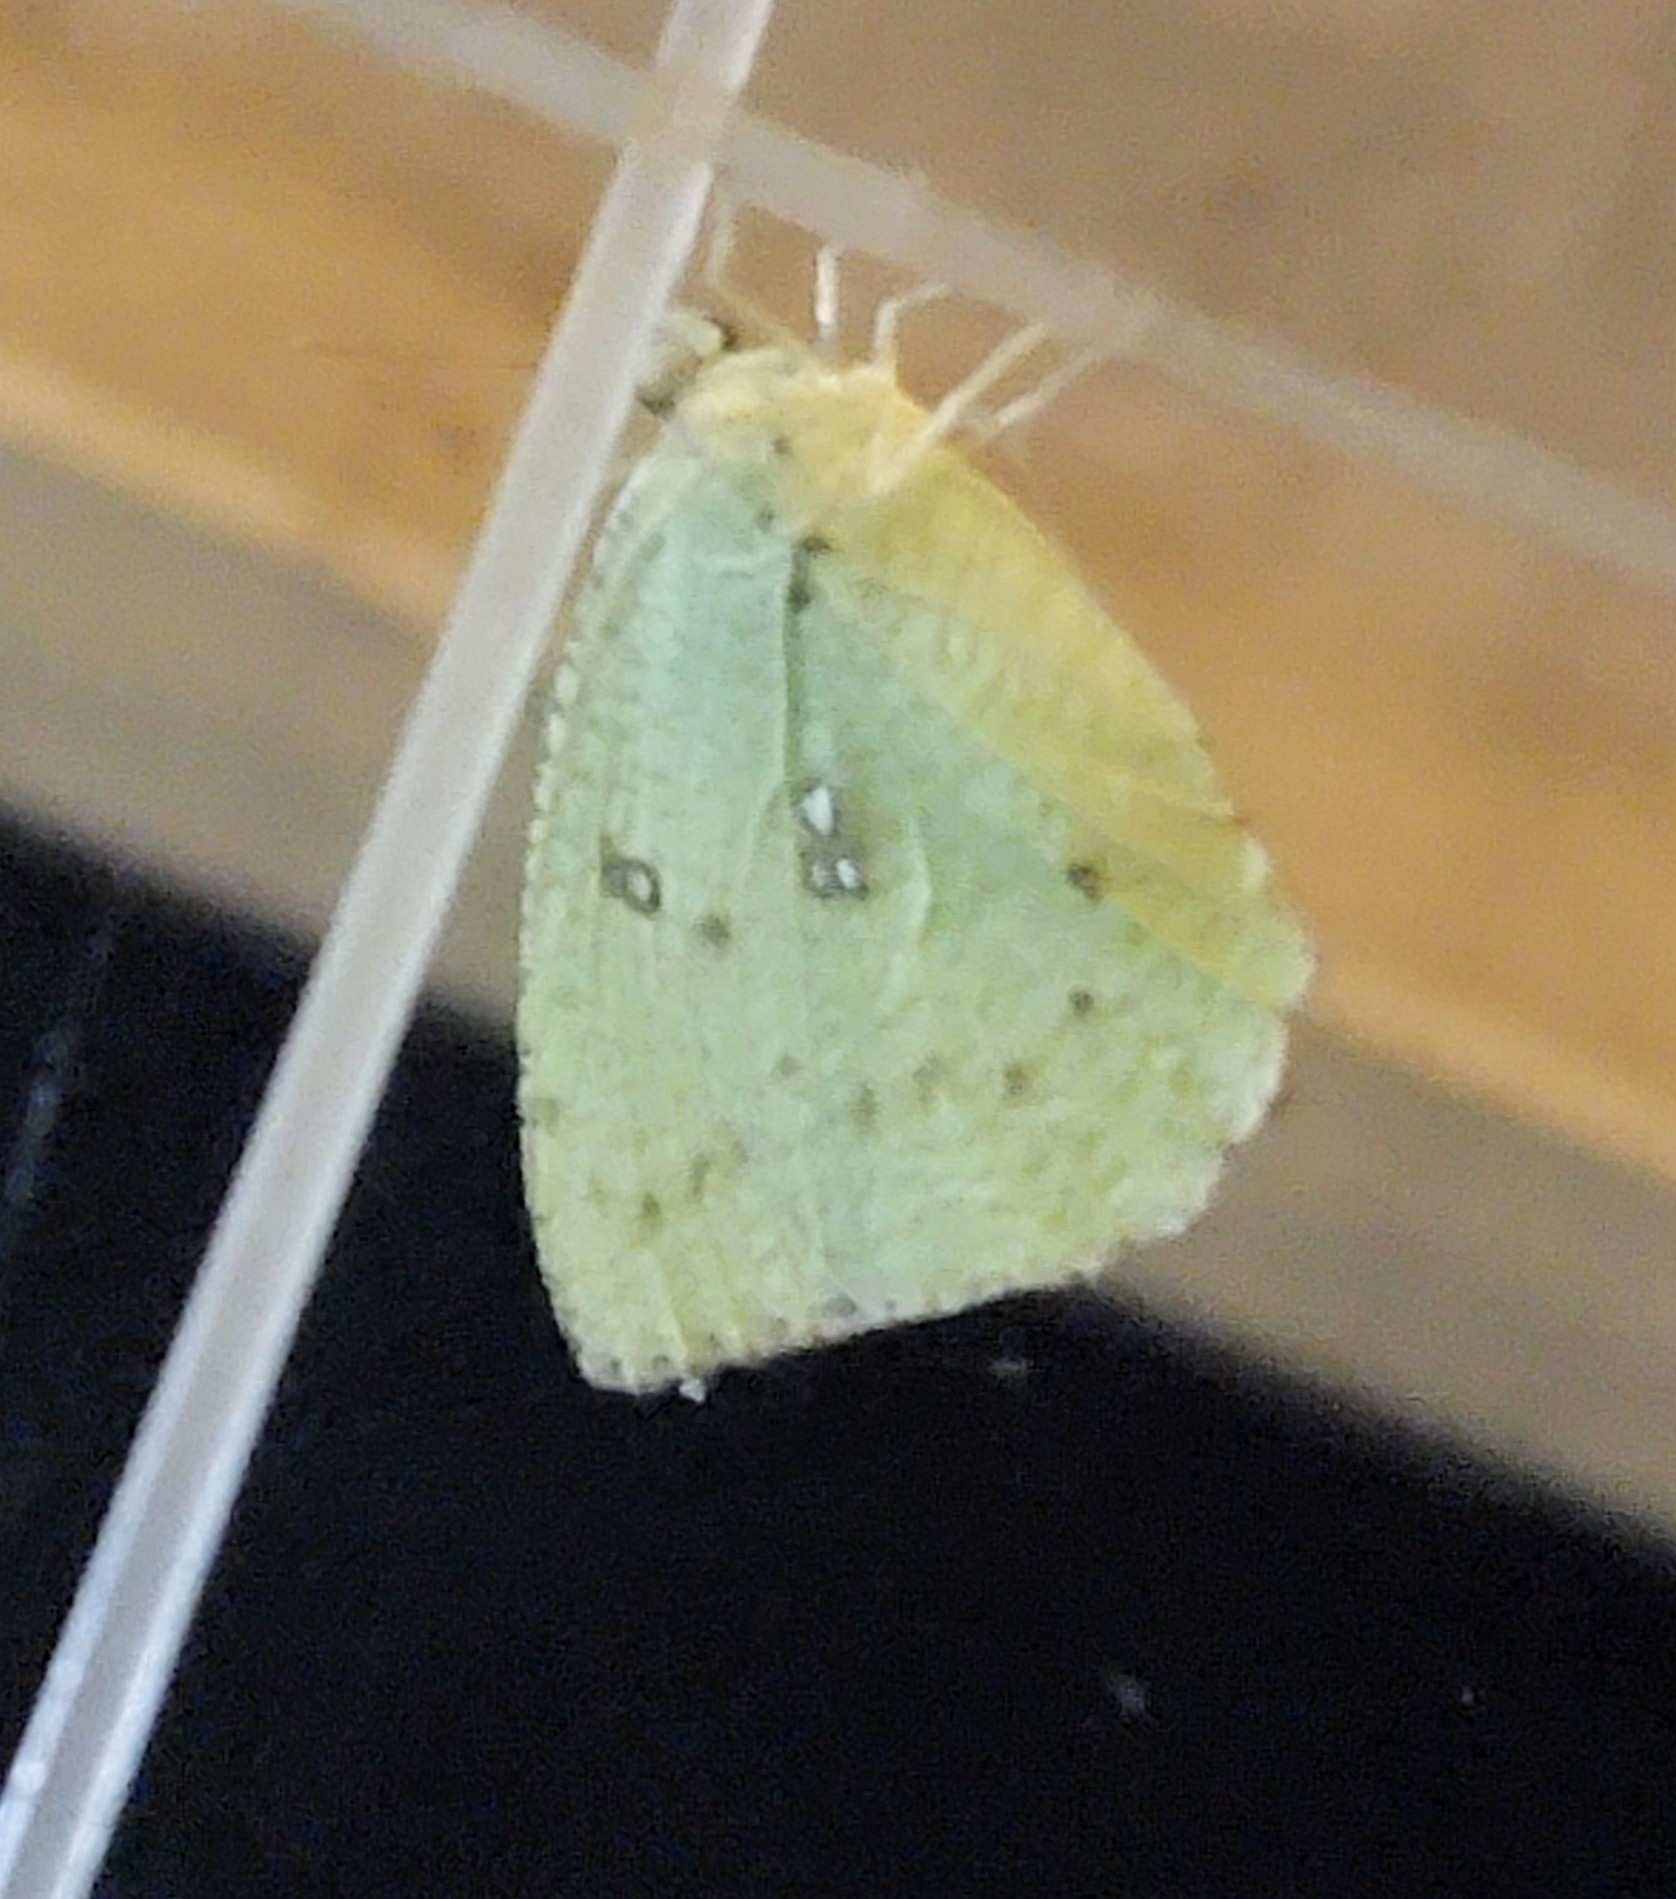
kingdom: Animalia
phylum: Arthropoda
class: Insecta
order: Lepidoptera
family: Pieridae
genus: Catopsilia
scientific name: Catopsilia pyranthe
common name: Mottled emigrant
